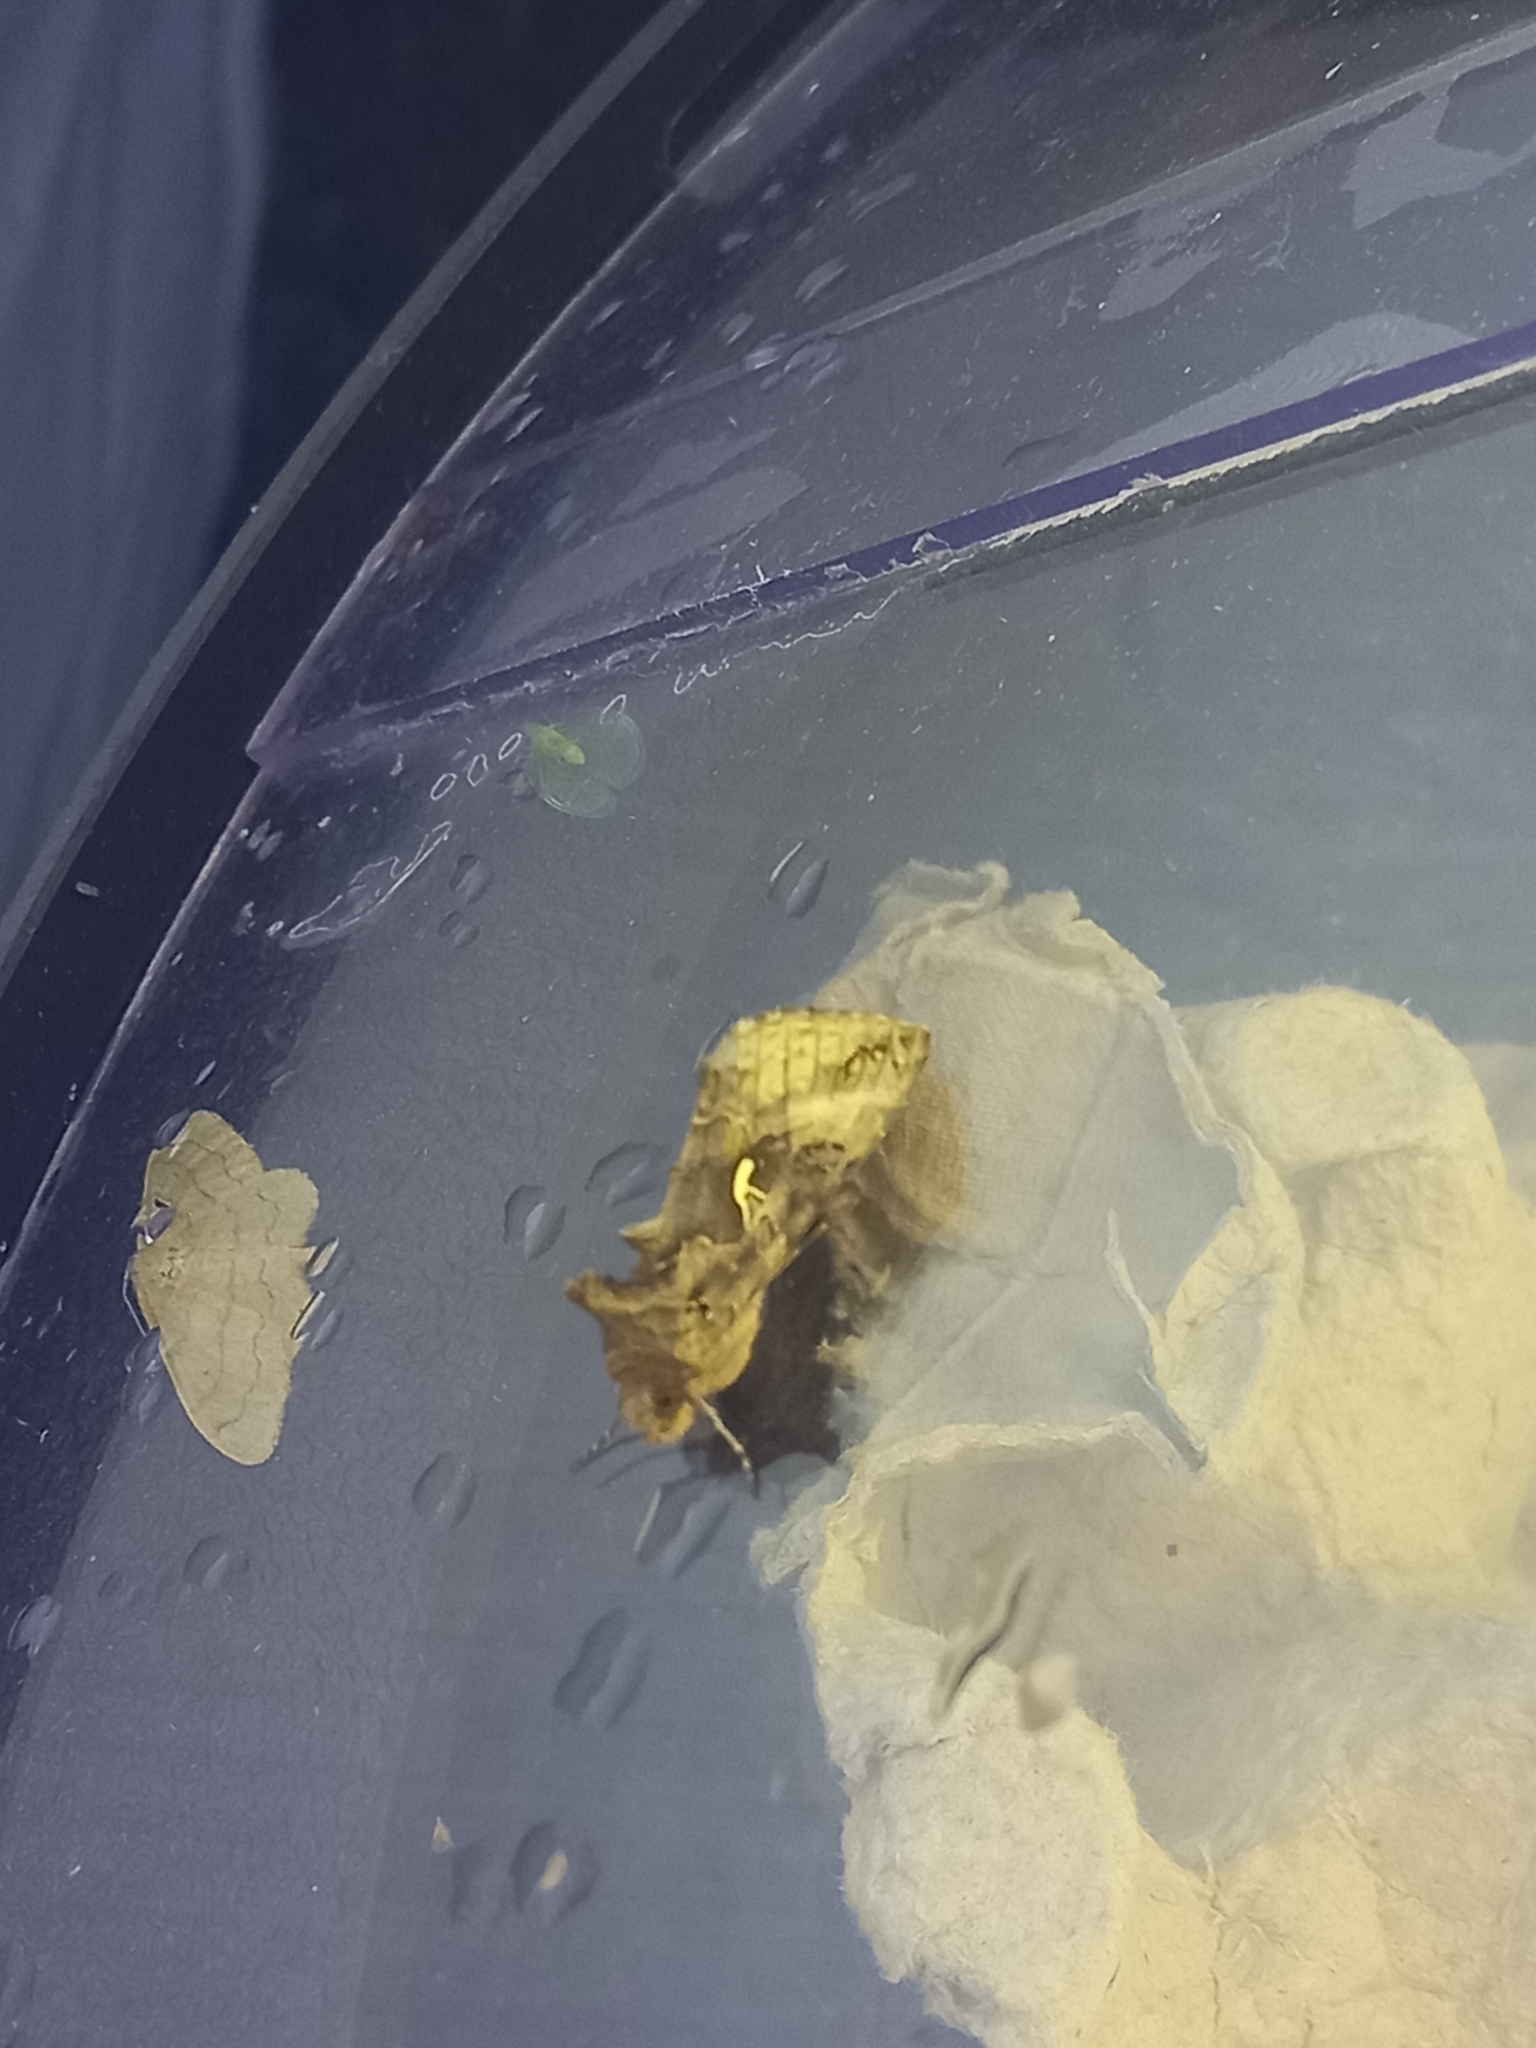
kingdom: Animalia
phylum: Arthropoda
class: Insecta
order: Lepidoptera
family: Noctuidae
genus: Autographa
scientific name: Autographa gamma
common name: Silver y
